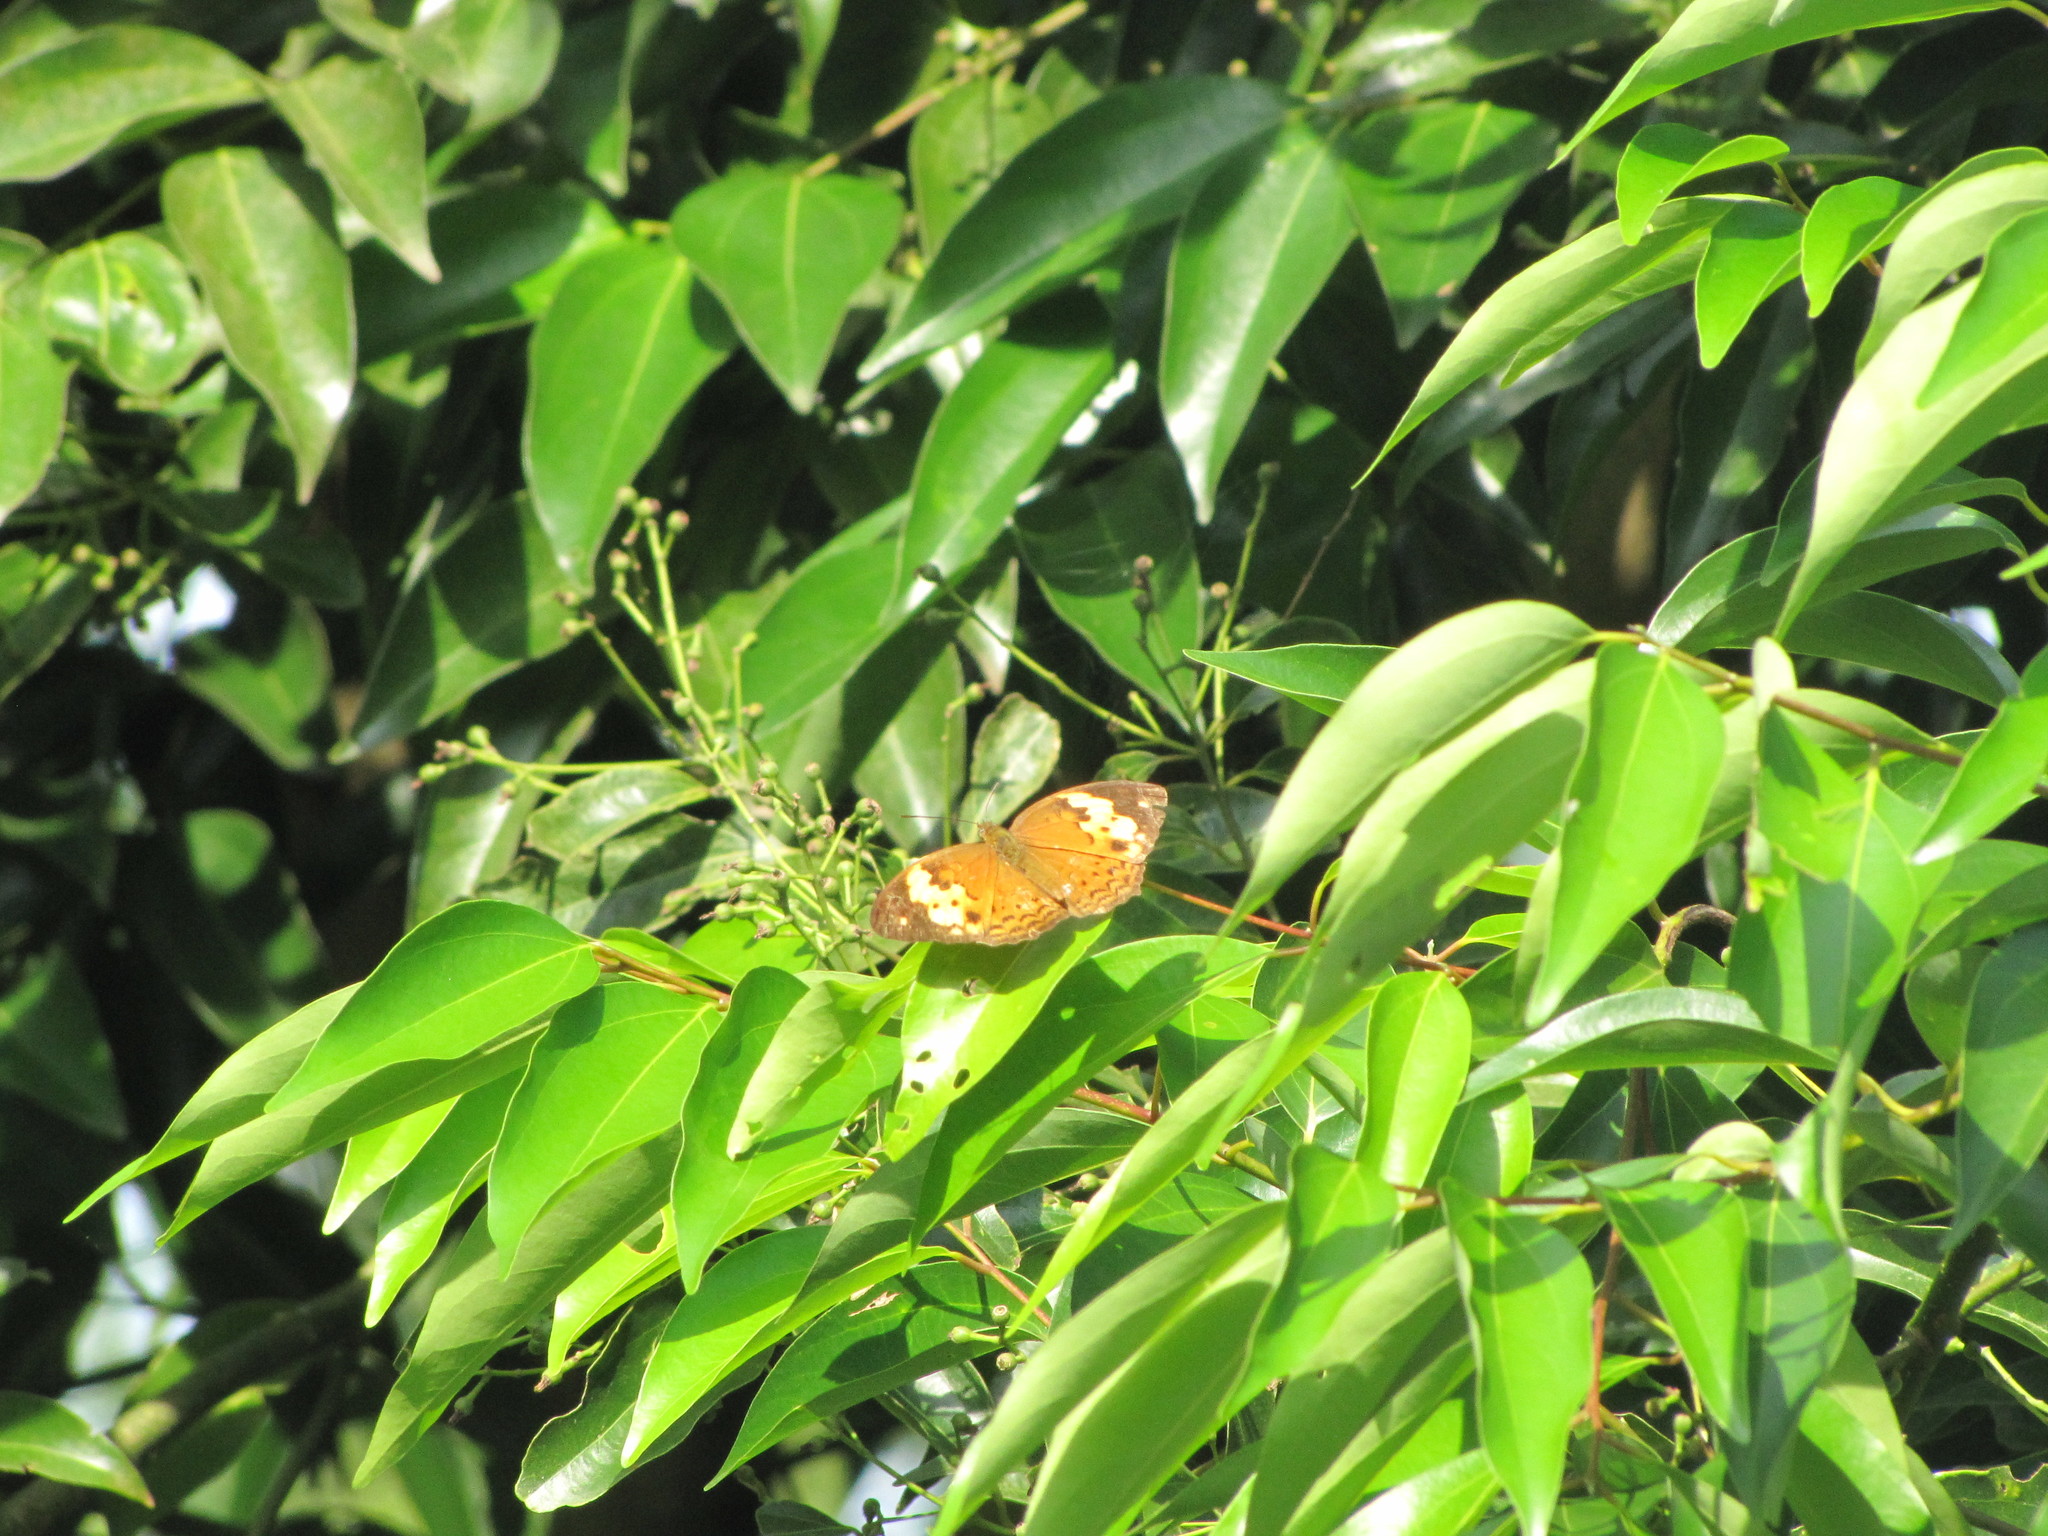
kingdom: Animalia
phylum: Arthropoda
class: Insecta
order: Lepidoptera
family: Nymphalidae
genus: Cupha
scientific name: Cupha erymanthis
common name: Rustic
